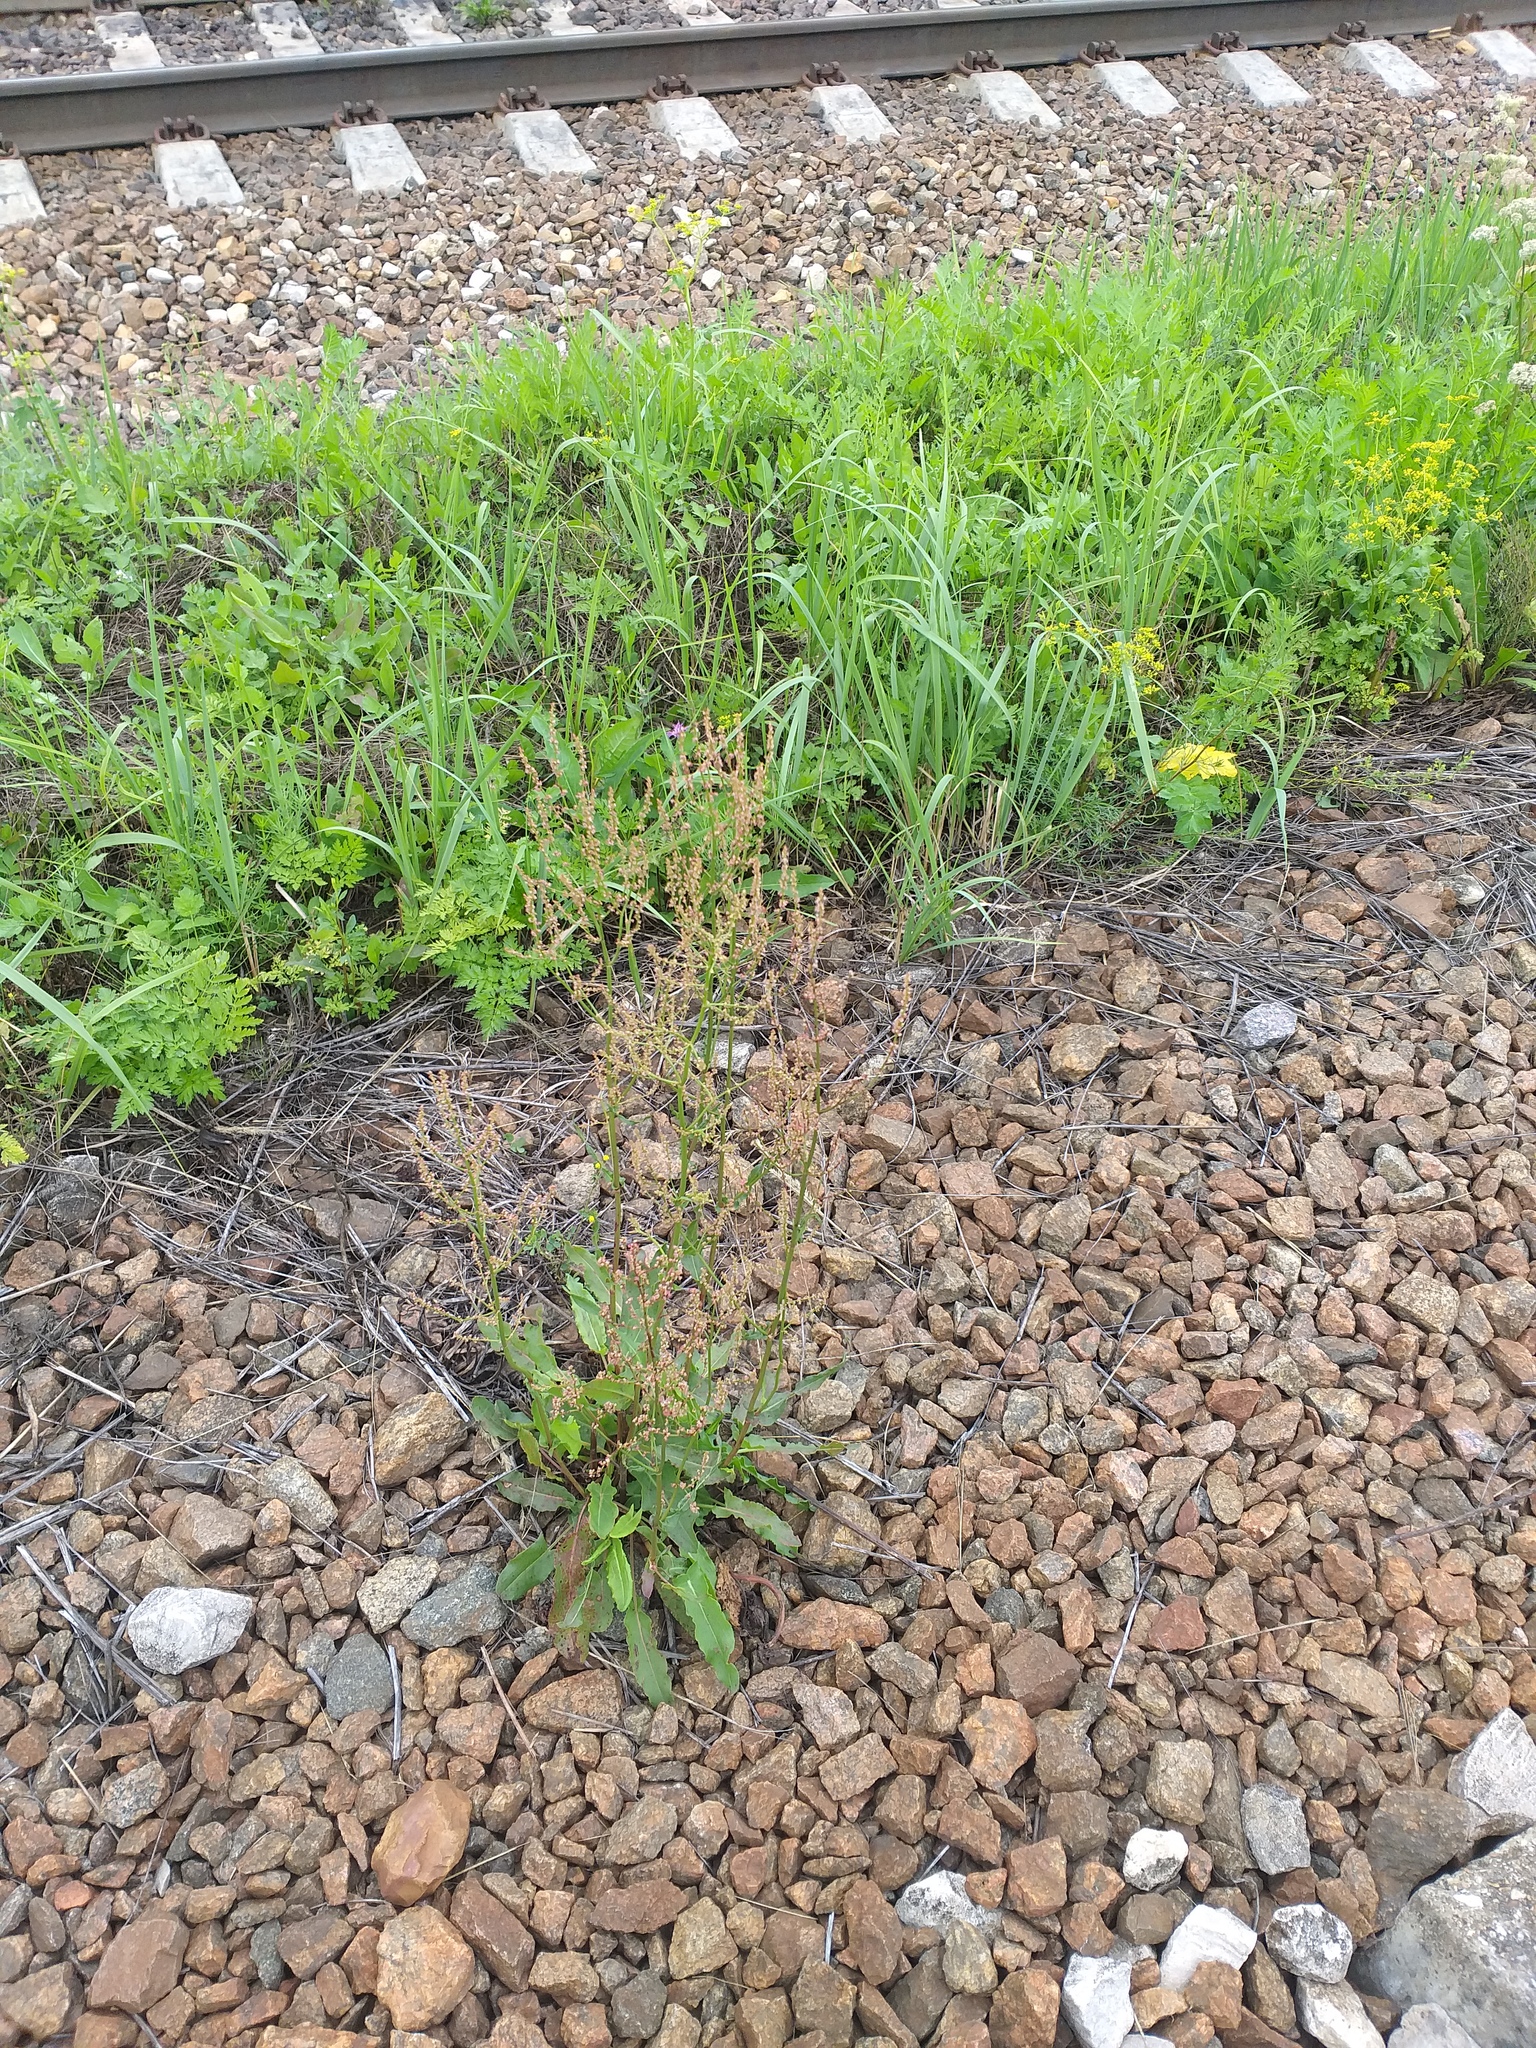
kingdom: Plantae
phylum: Tracheophyta
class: Magnoliopsida
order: Caryophyllales
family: Polygonaceae
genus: Rumex
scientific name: Rumex thyrsiflorus
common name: Garden sorrel
